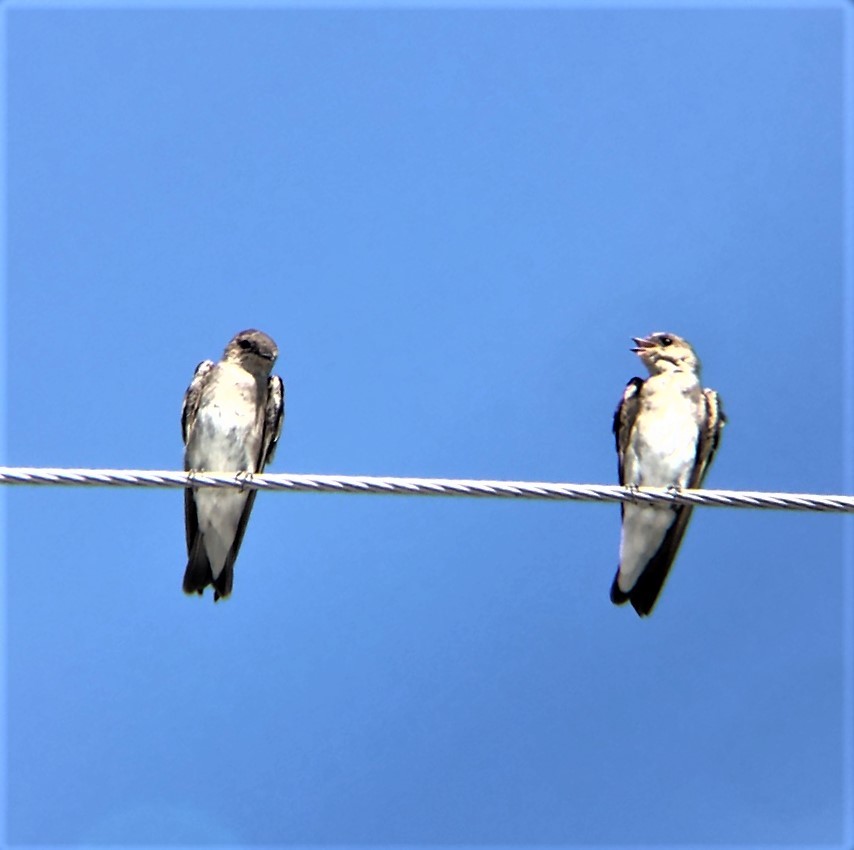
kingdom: Animalia
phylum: Chordata
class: Aves
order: Passeriformes
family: Hirundinidae
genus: Stelgidopteryx
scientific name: Stelgidopteryx serripennis
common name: Northern rough-winged swallow
